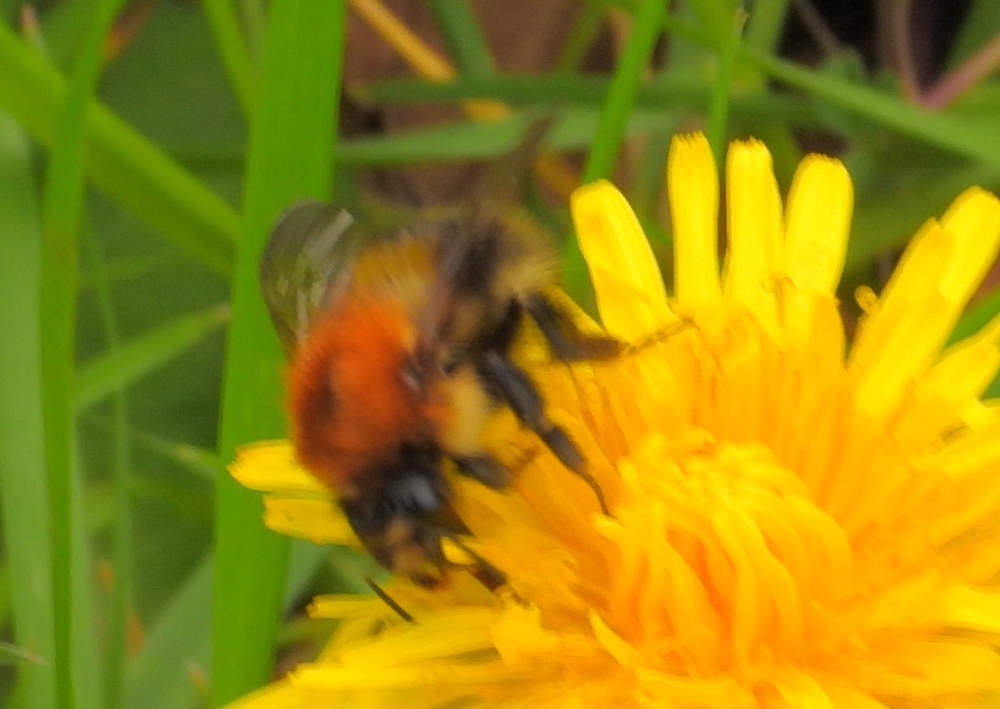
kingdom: Animalia
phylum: Arthropoda
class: Insecta
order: Hymenoptera
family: Apidae
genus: Bombus
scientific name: Bombus pascuorum
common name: Common carder bee
